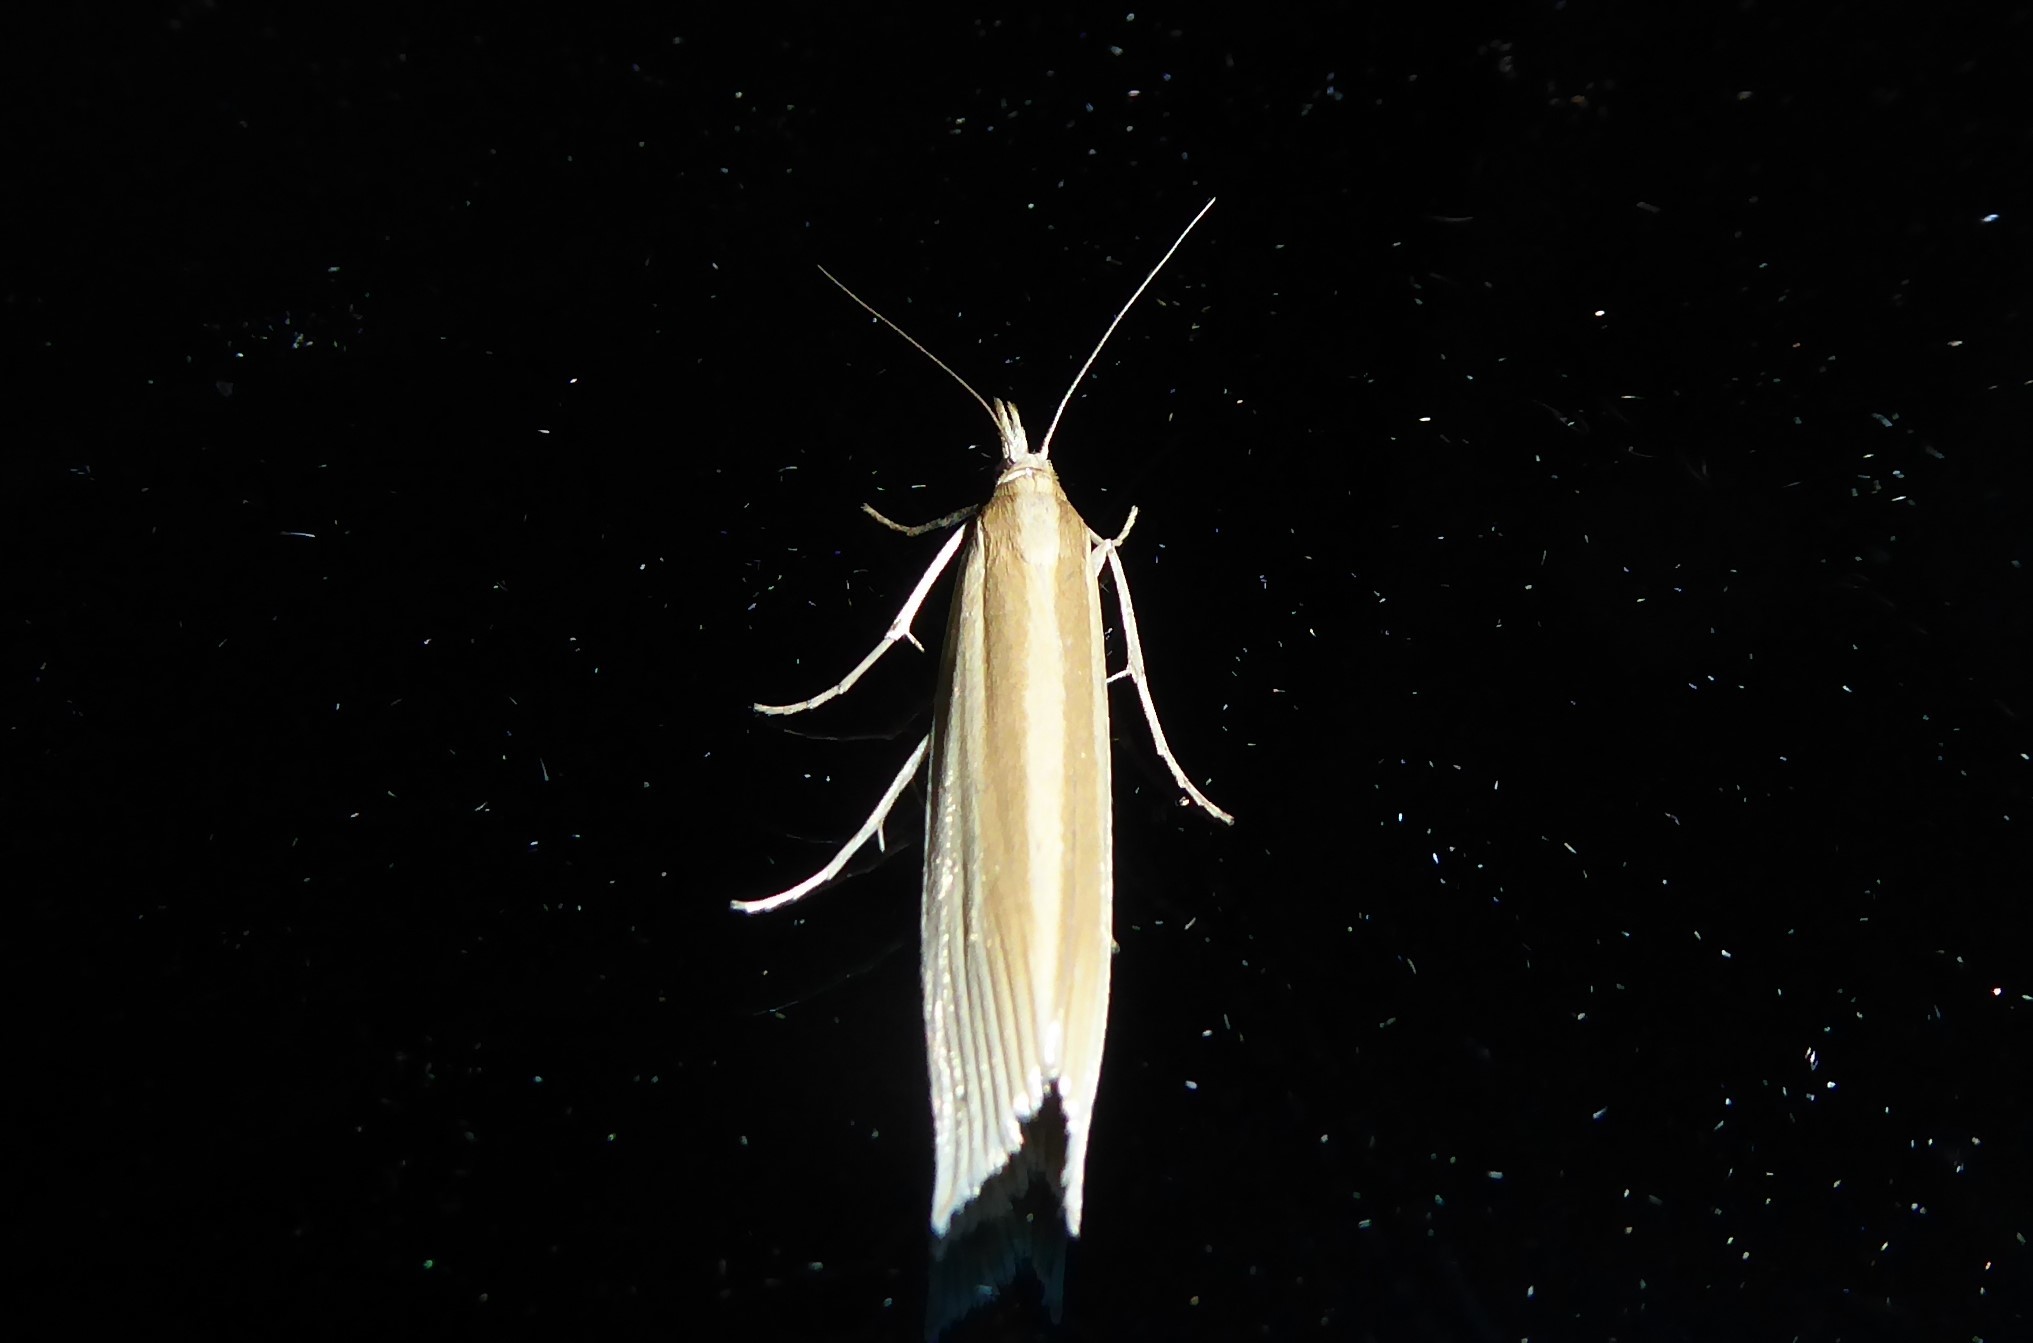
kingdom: Animalia
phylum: Arthropoda
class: Insecta
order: Lepidoptera
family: Crambidae
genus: Orocrambus
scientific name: Orocrambus angustipennis
